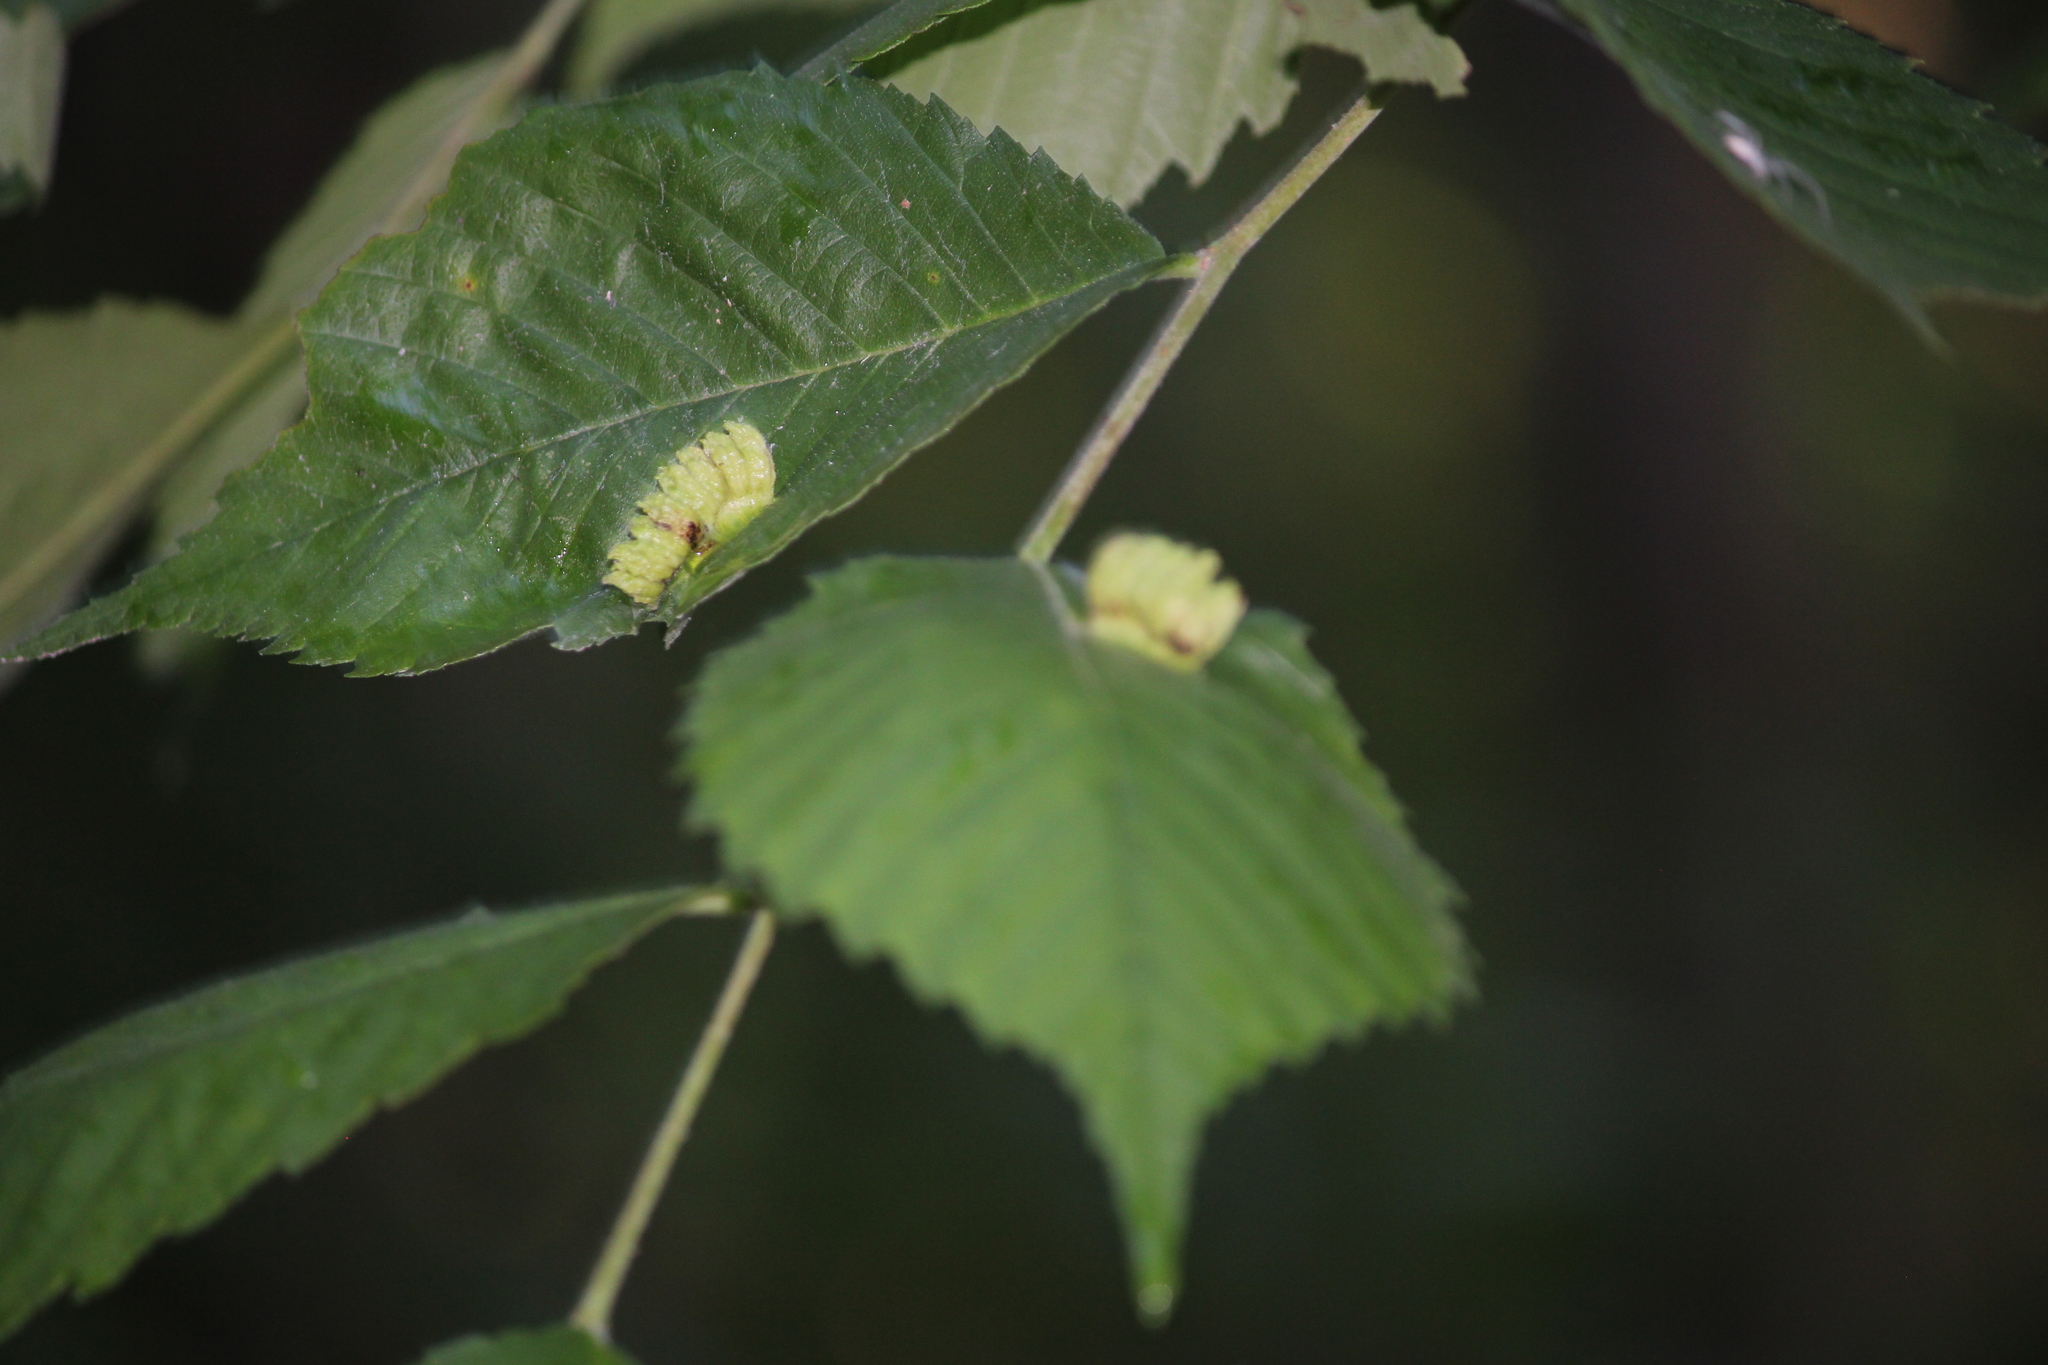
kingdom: Animalia
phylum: Arthropoda
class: Insecta
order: Hemiptera
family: Aphididae
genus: Colopha
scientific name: Colopha ulmicola
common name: Elm cockscombgall aphid
